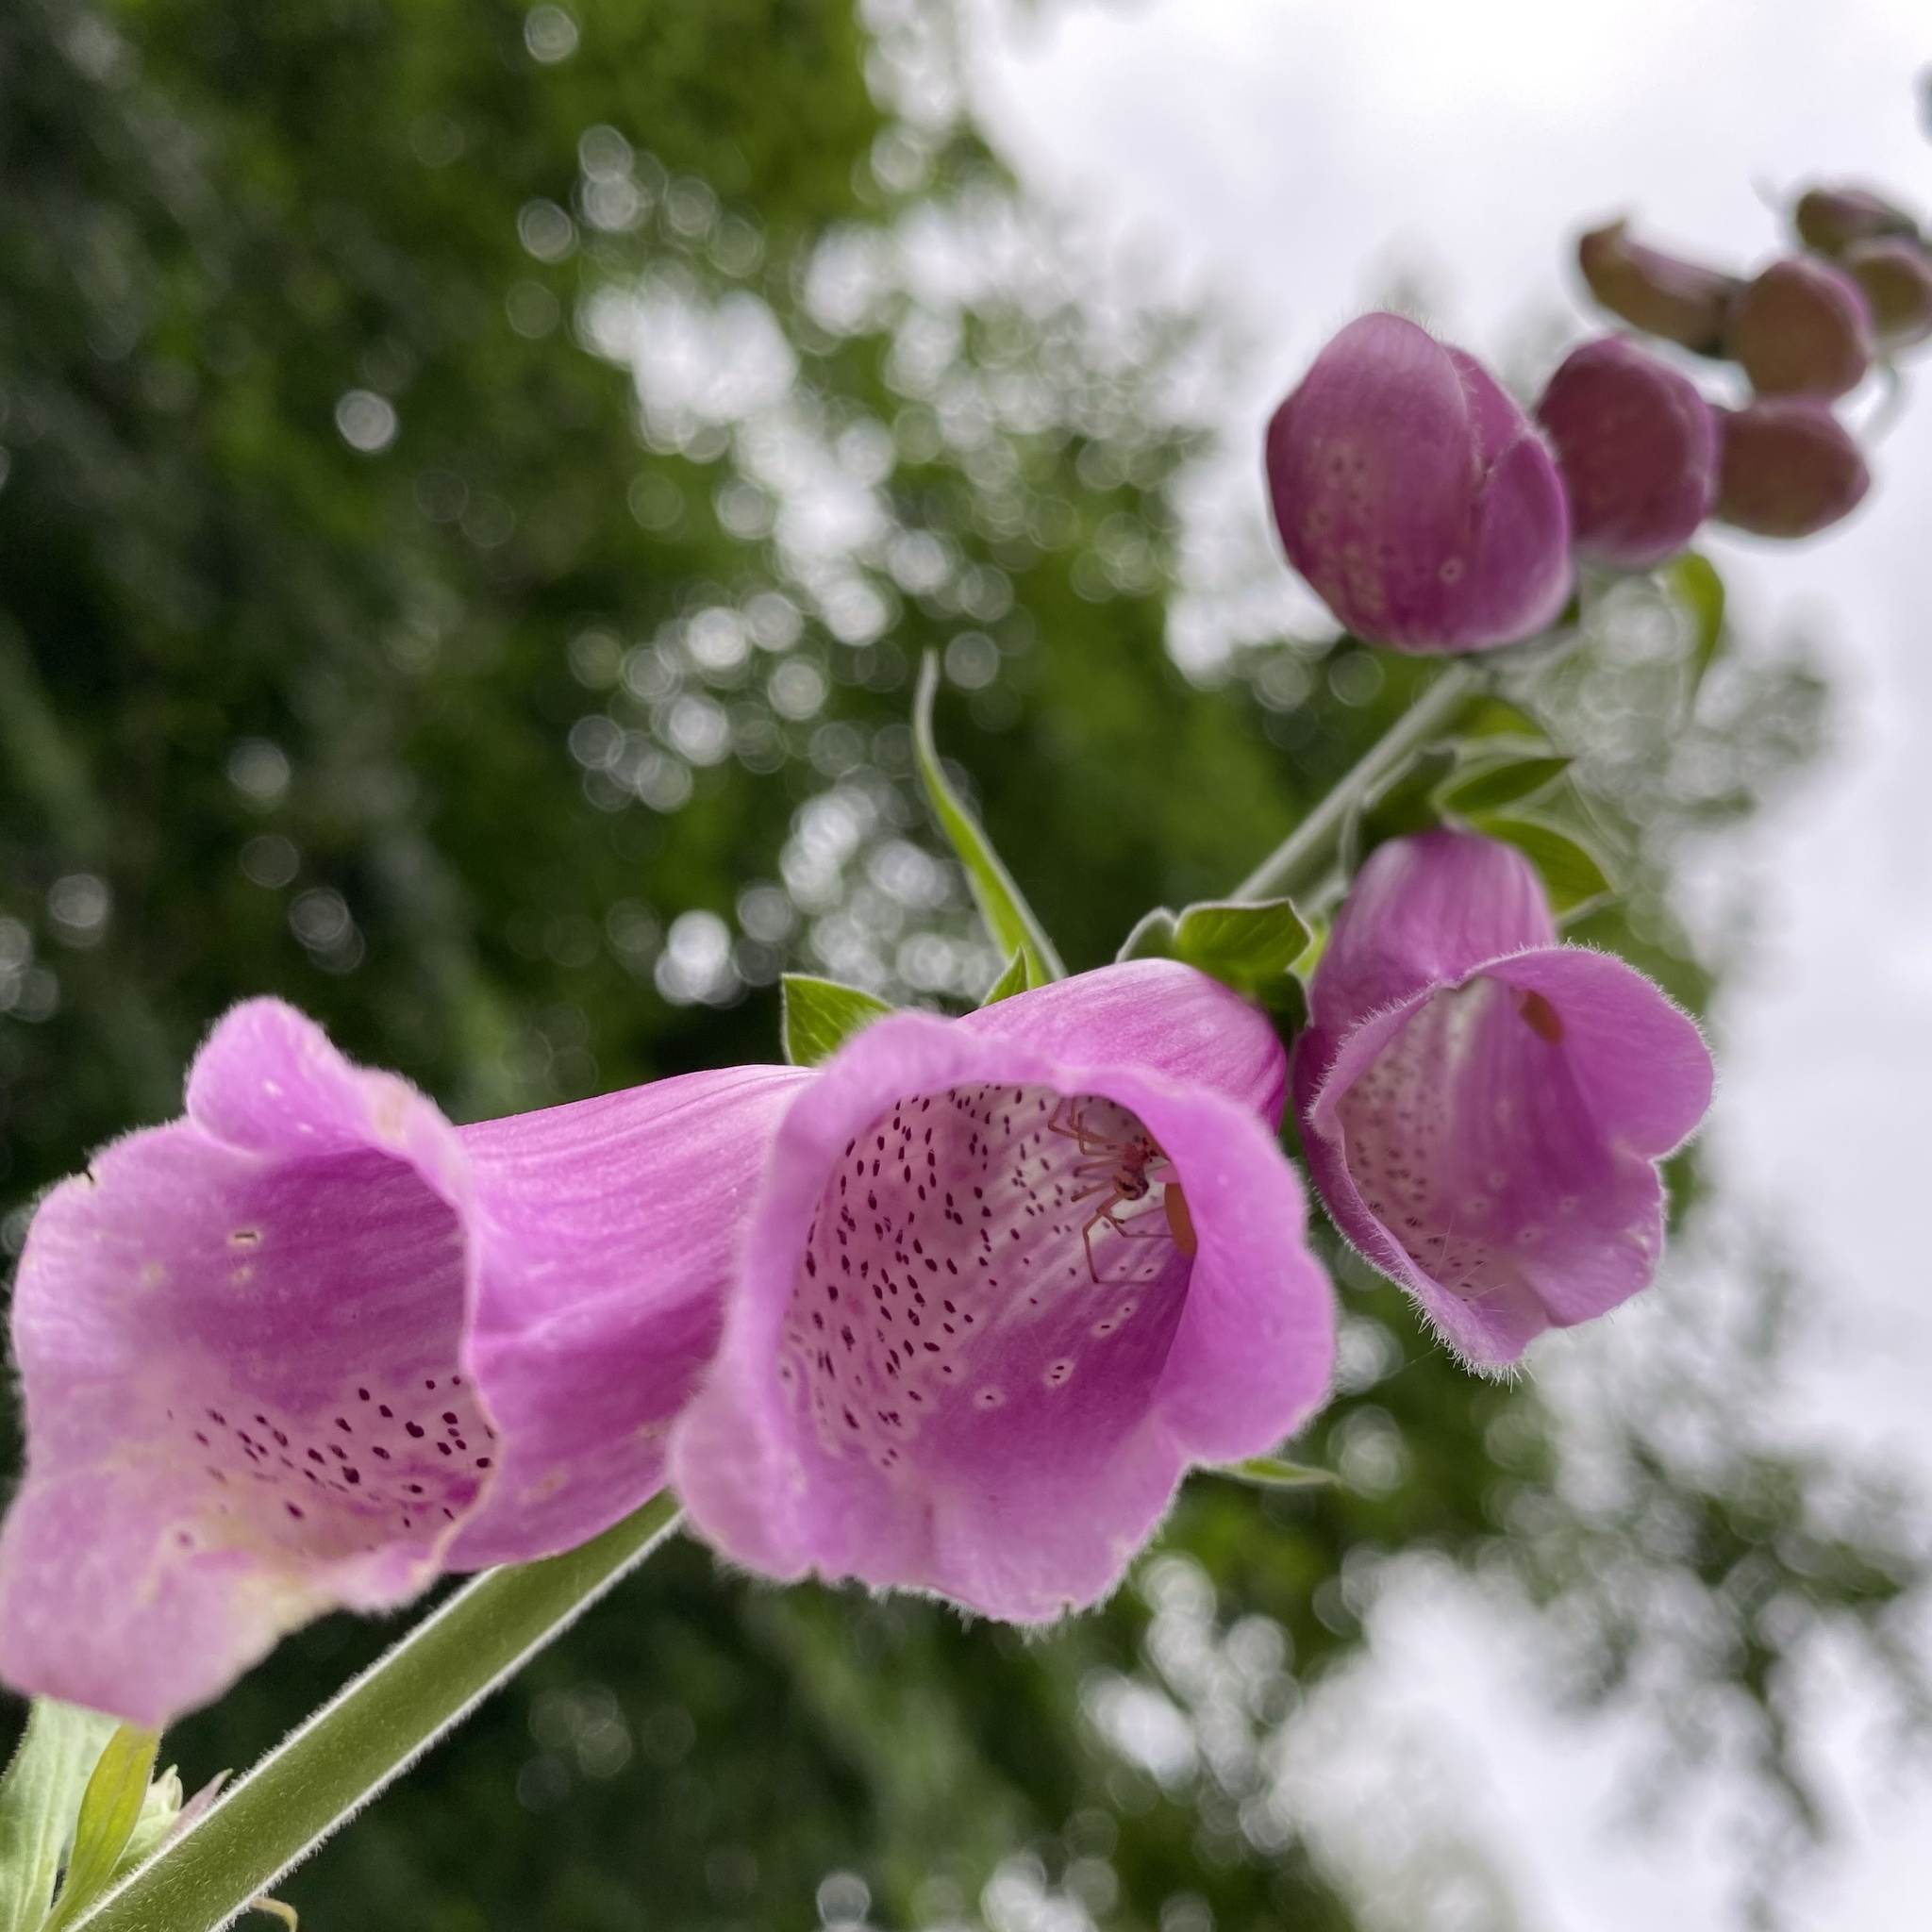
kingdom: Plantae
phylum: Tracheophyta
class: Magnoliopsida
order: Lamiales
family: Plantaginaceae
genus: Digitalis
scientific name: Digitalis purpurea
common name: Foxglove
